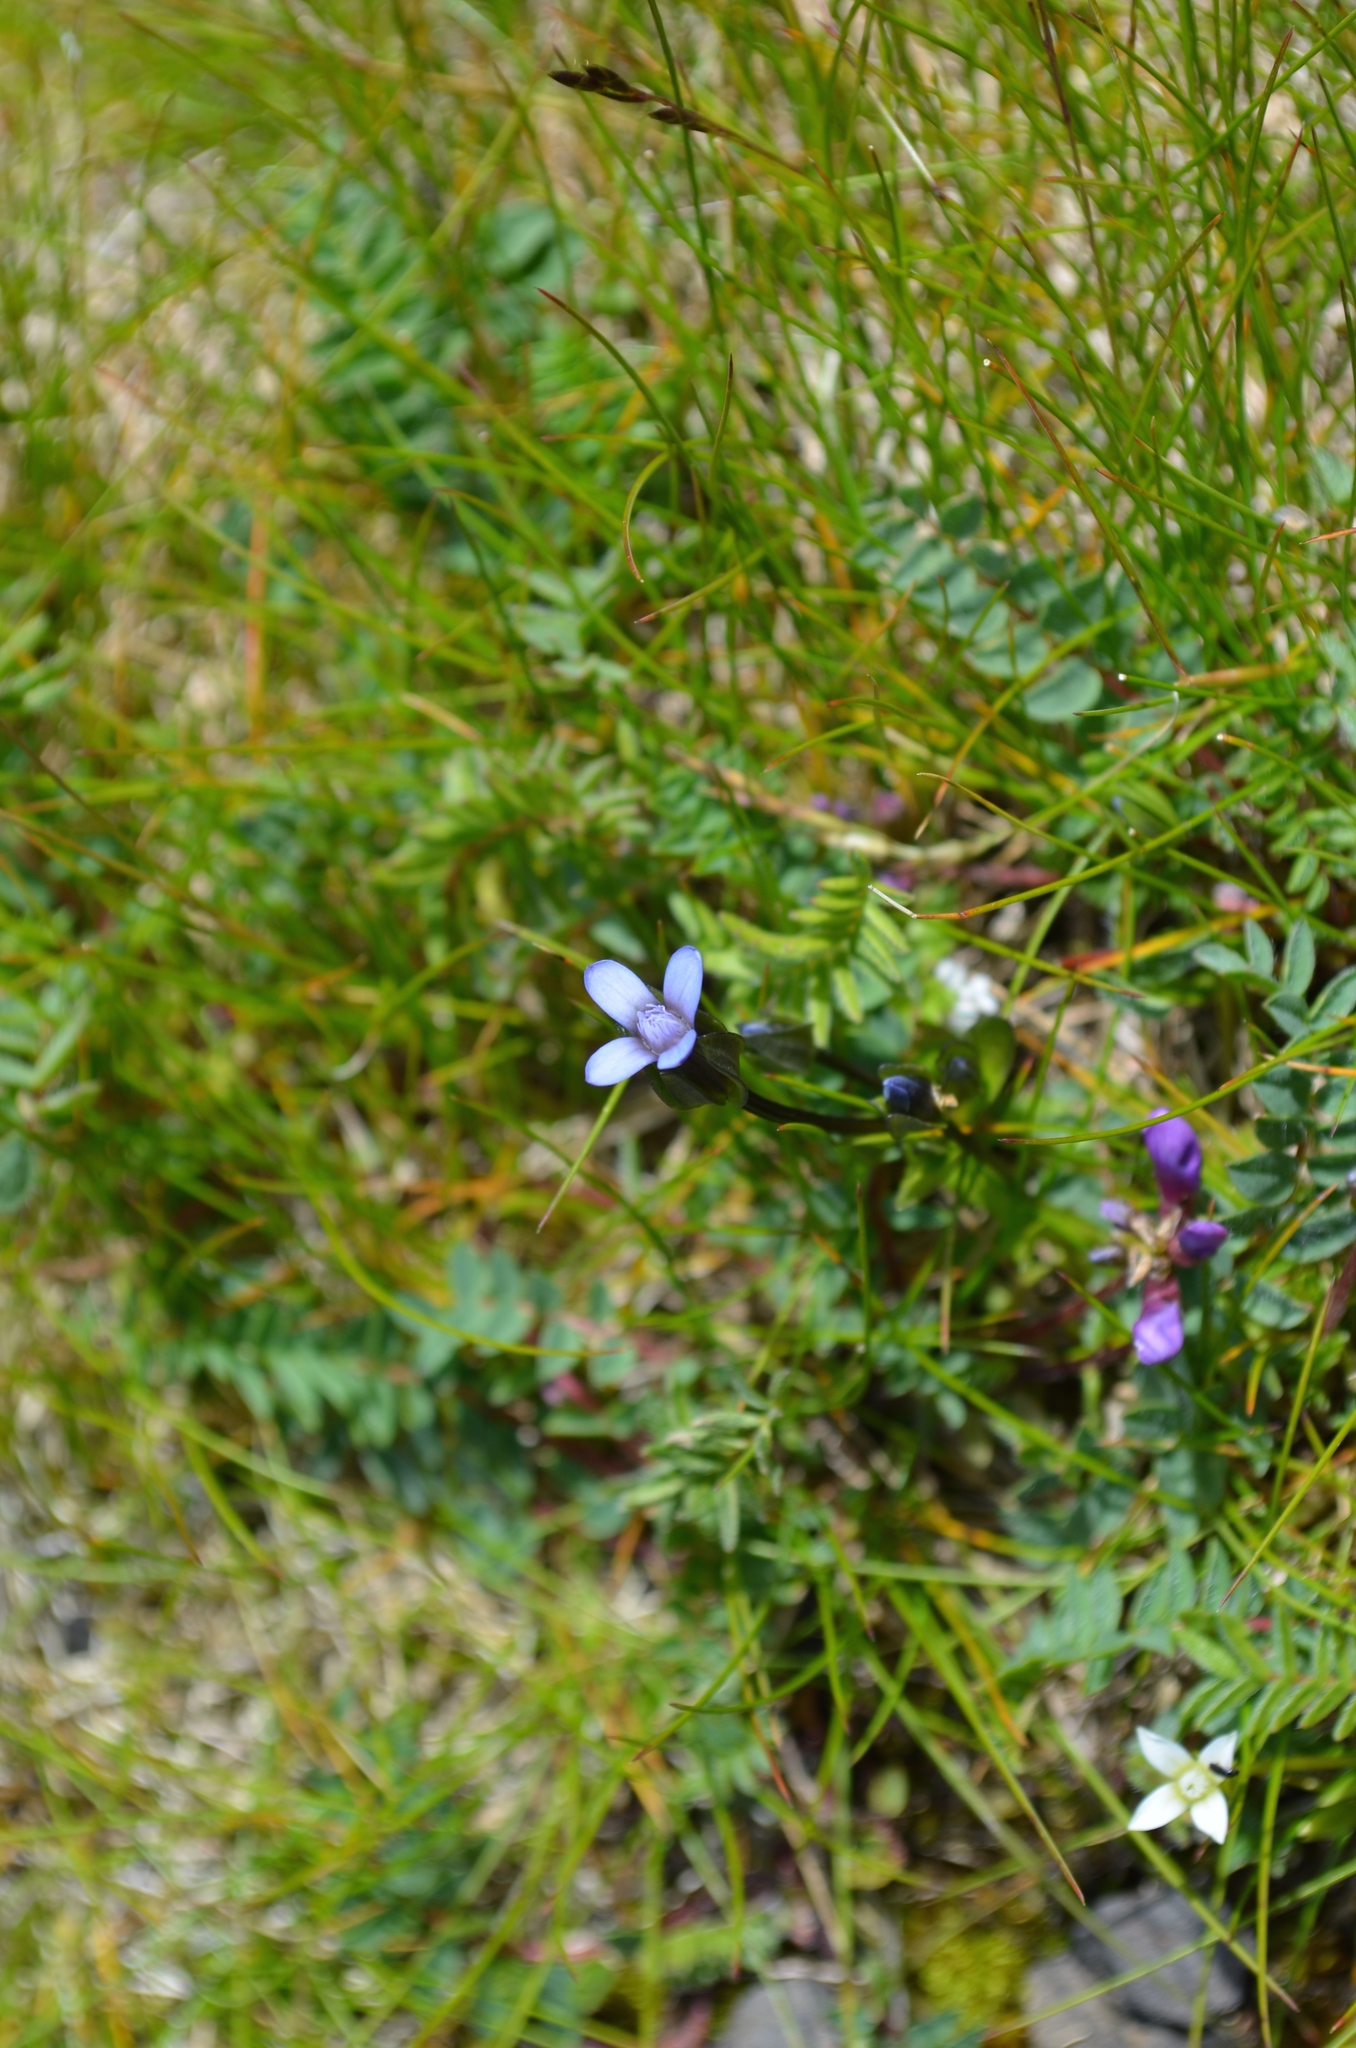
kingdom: Plantae
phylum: Tracheophyta
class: Magnoliopsida
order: Gentianales
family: Gentianaceae
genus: Comastoma
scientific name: Comastoma tenellum
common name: Dane's dwarf gentian
